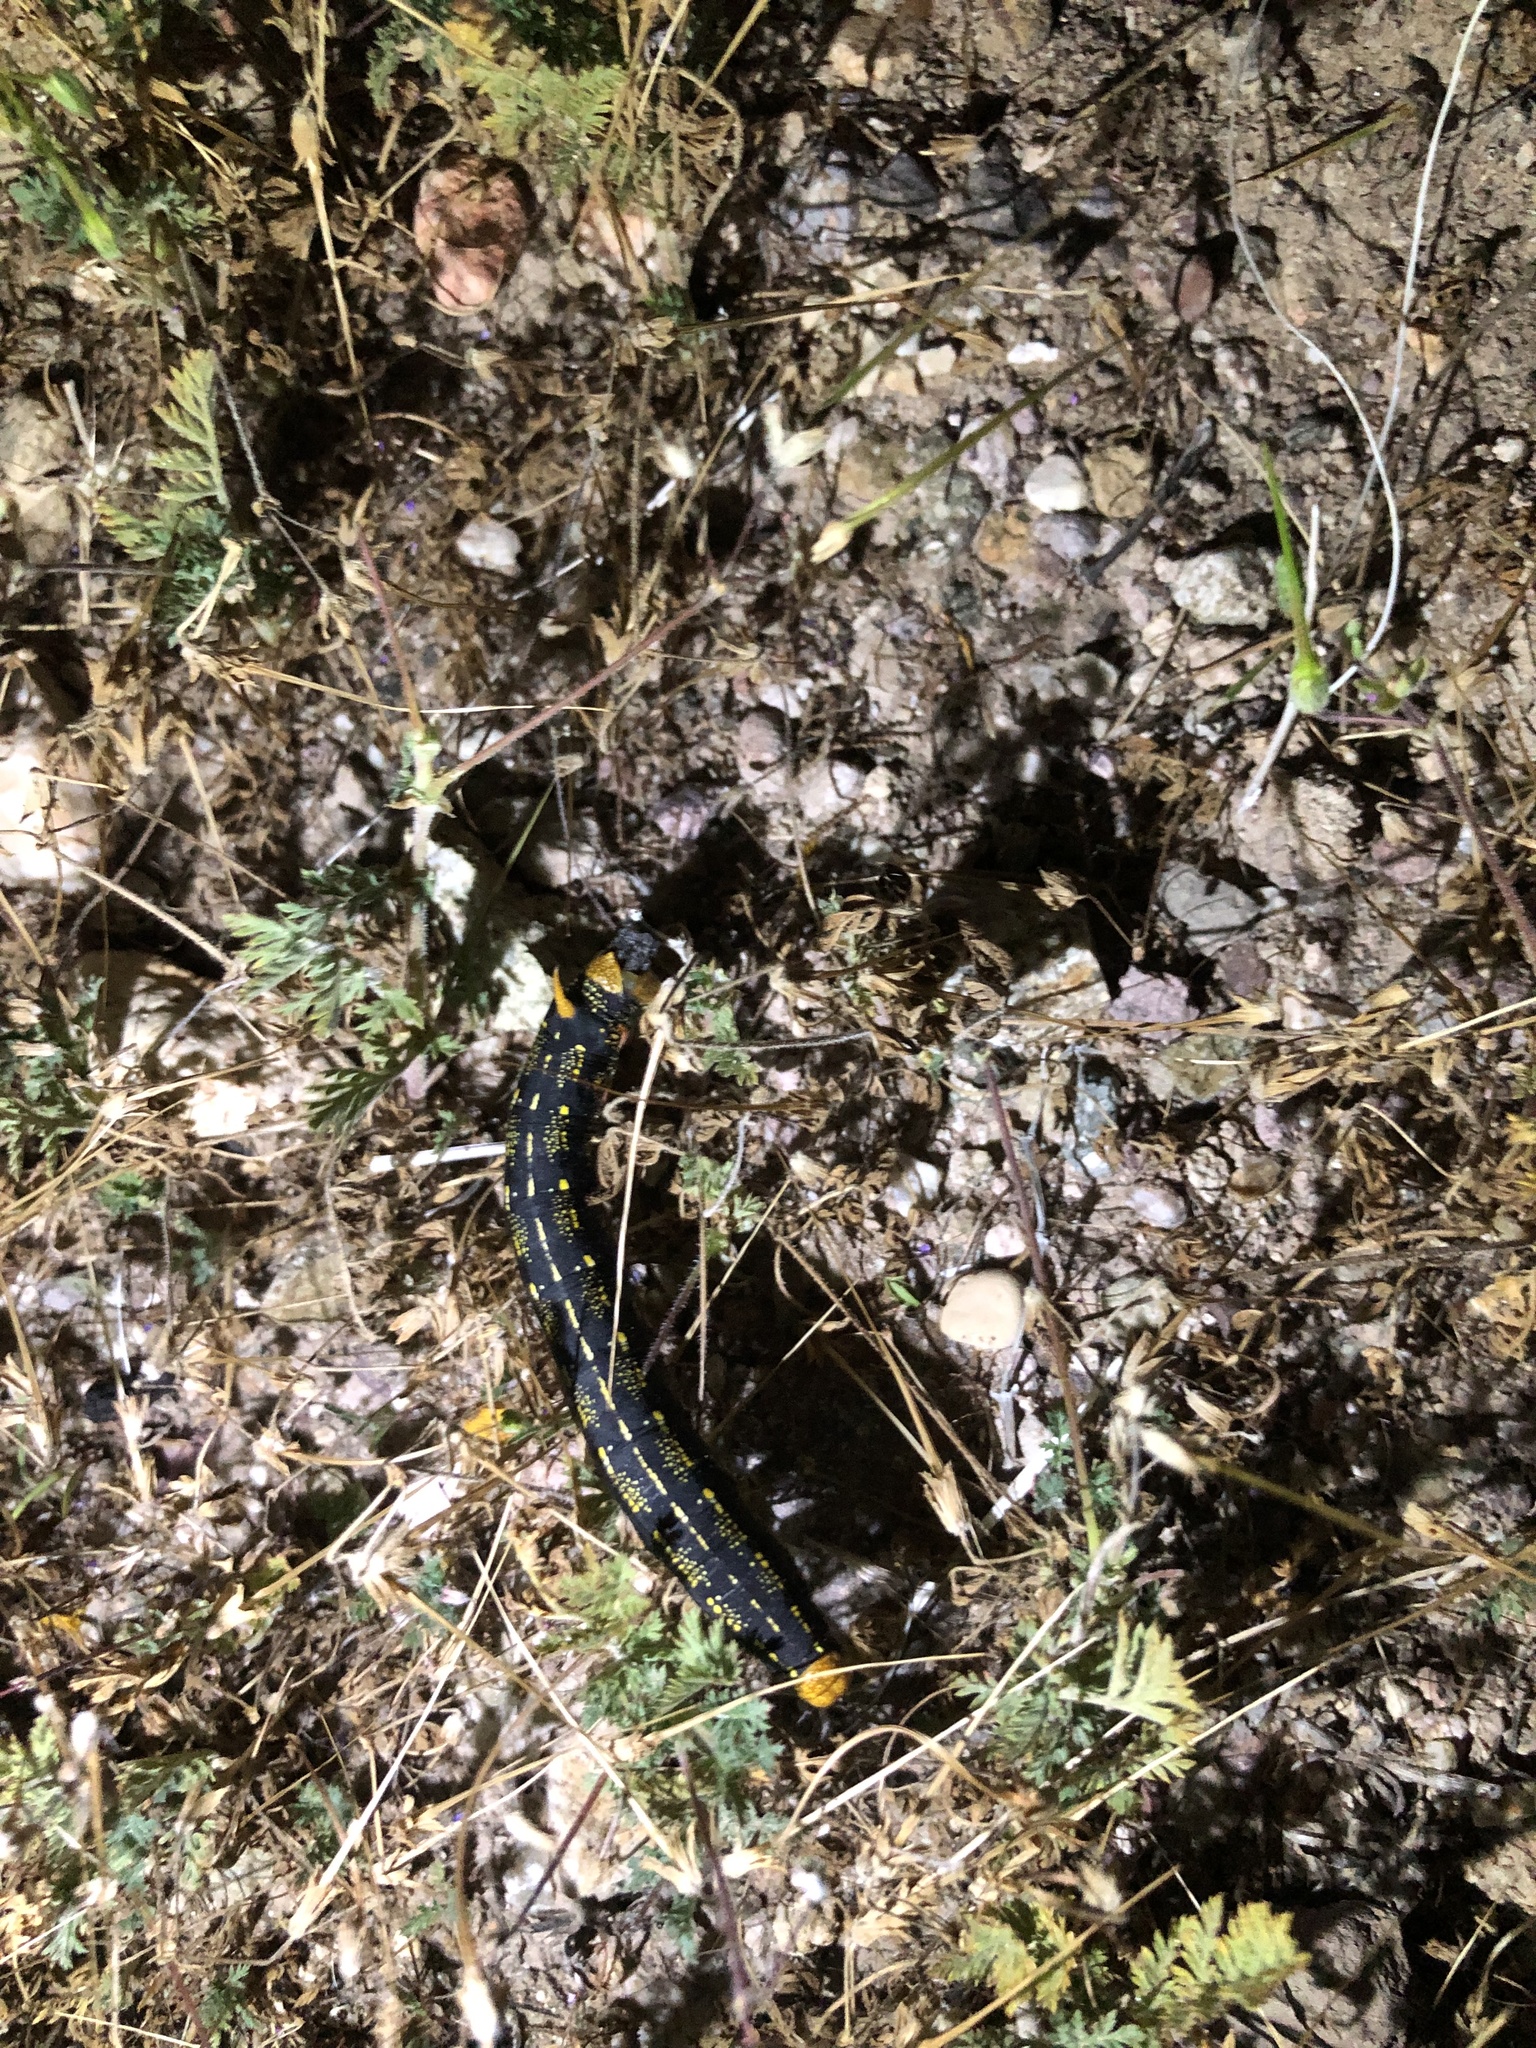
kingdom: Animalia
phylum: Arthropoda
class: Insecta
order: Lepidoptera
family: Sphingidae
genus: Hyles
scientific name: Hyles lineata
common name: White-lined sphinx
